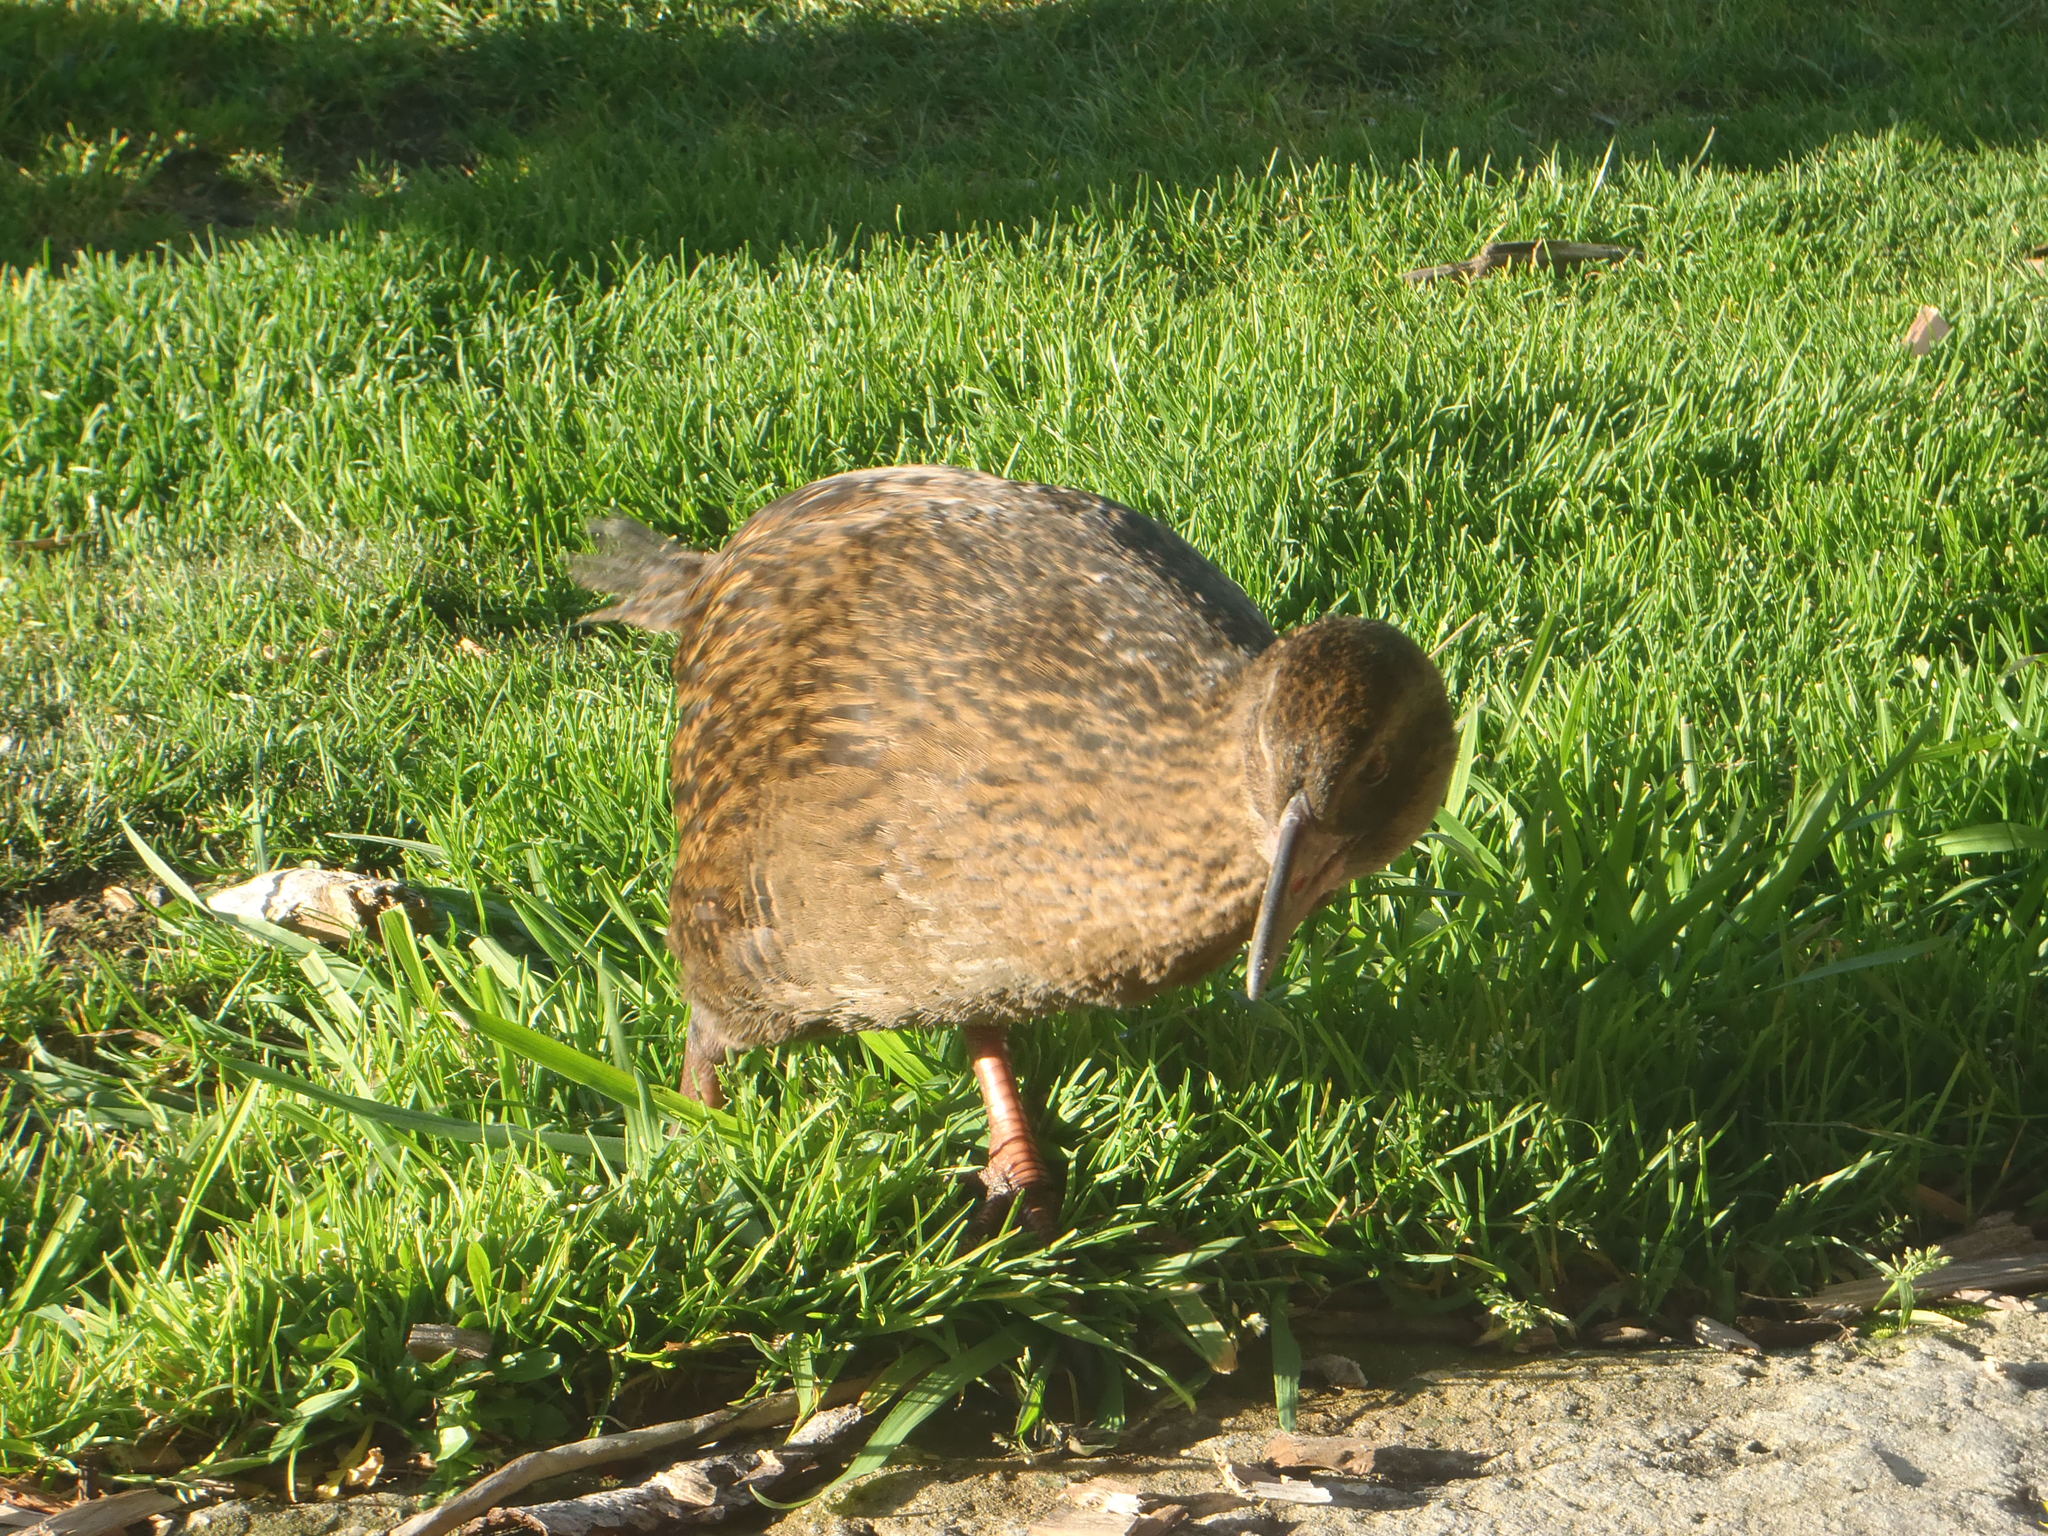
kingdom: Animalia
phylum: Chordata
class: Aves
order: Gruiformes
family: Rallidae
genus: Gallirallus
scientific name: Gallirallus australis
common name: Weka
